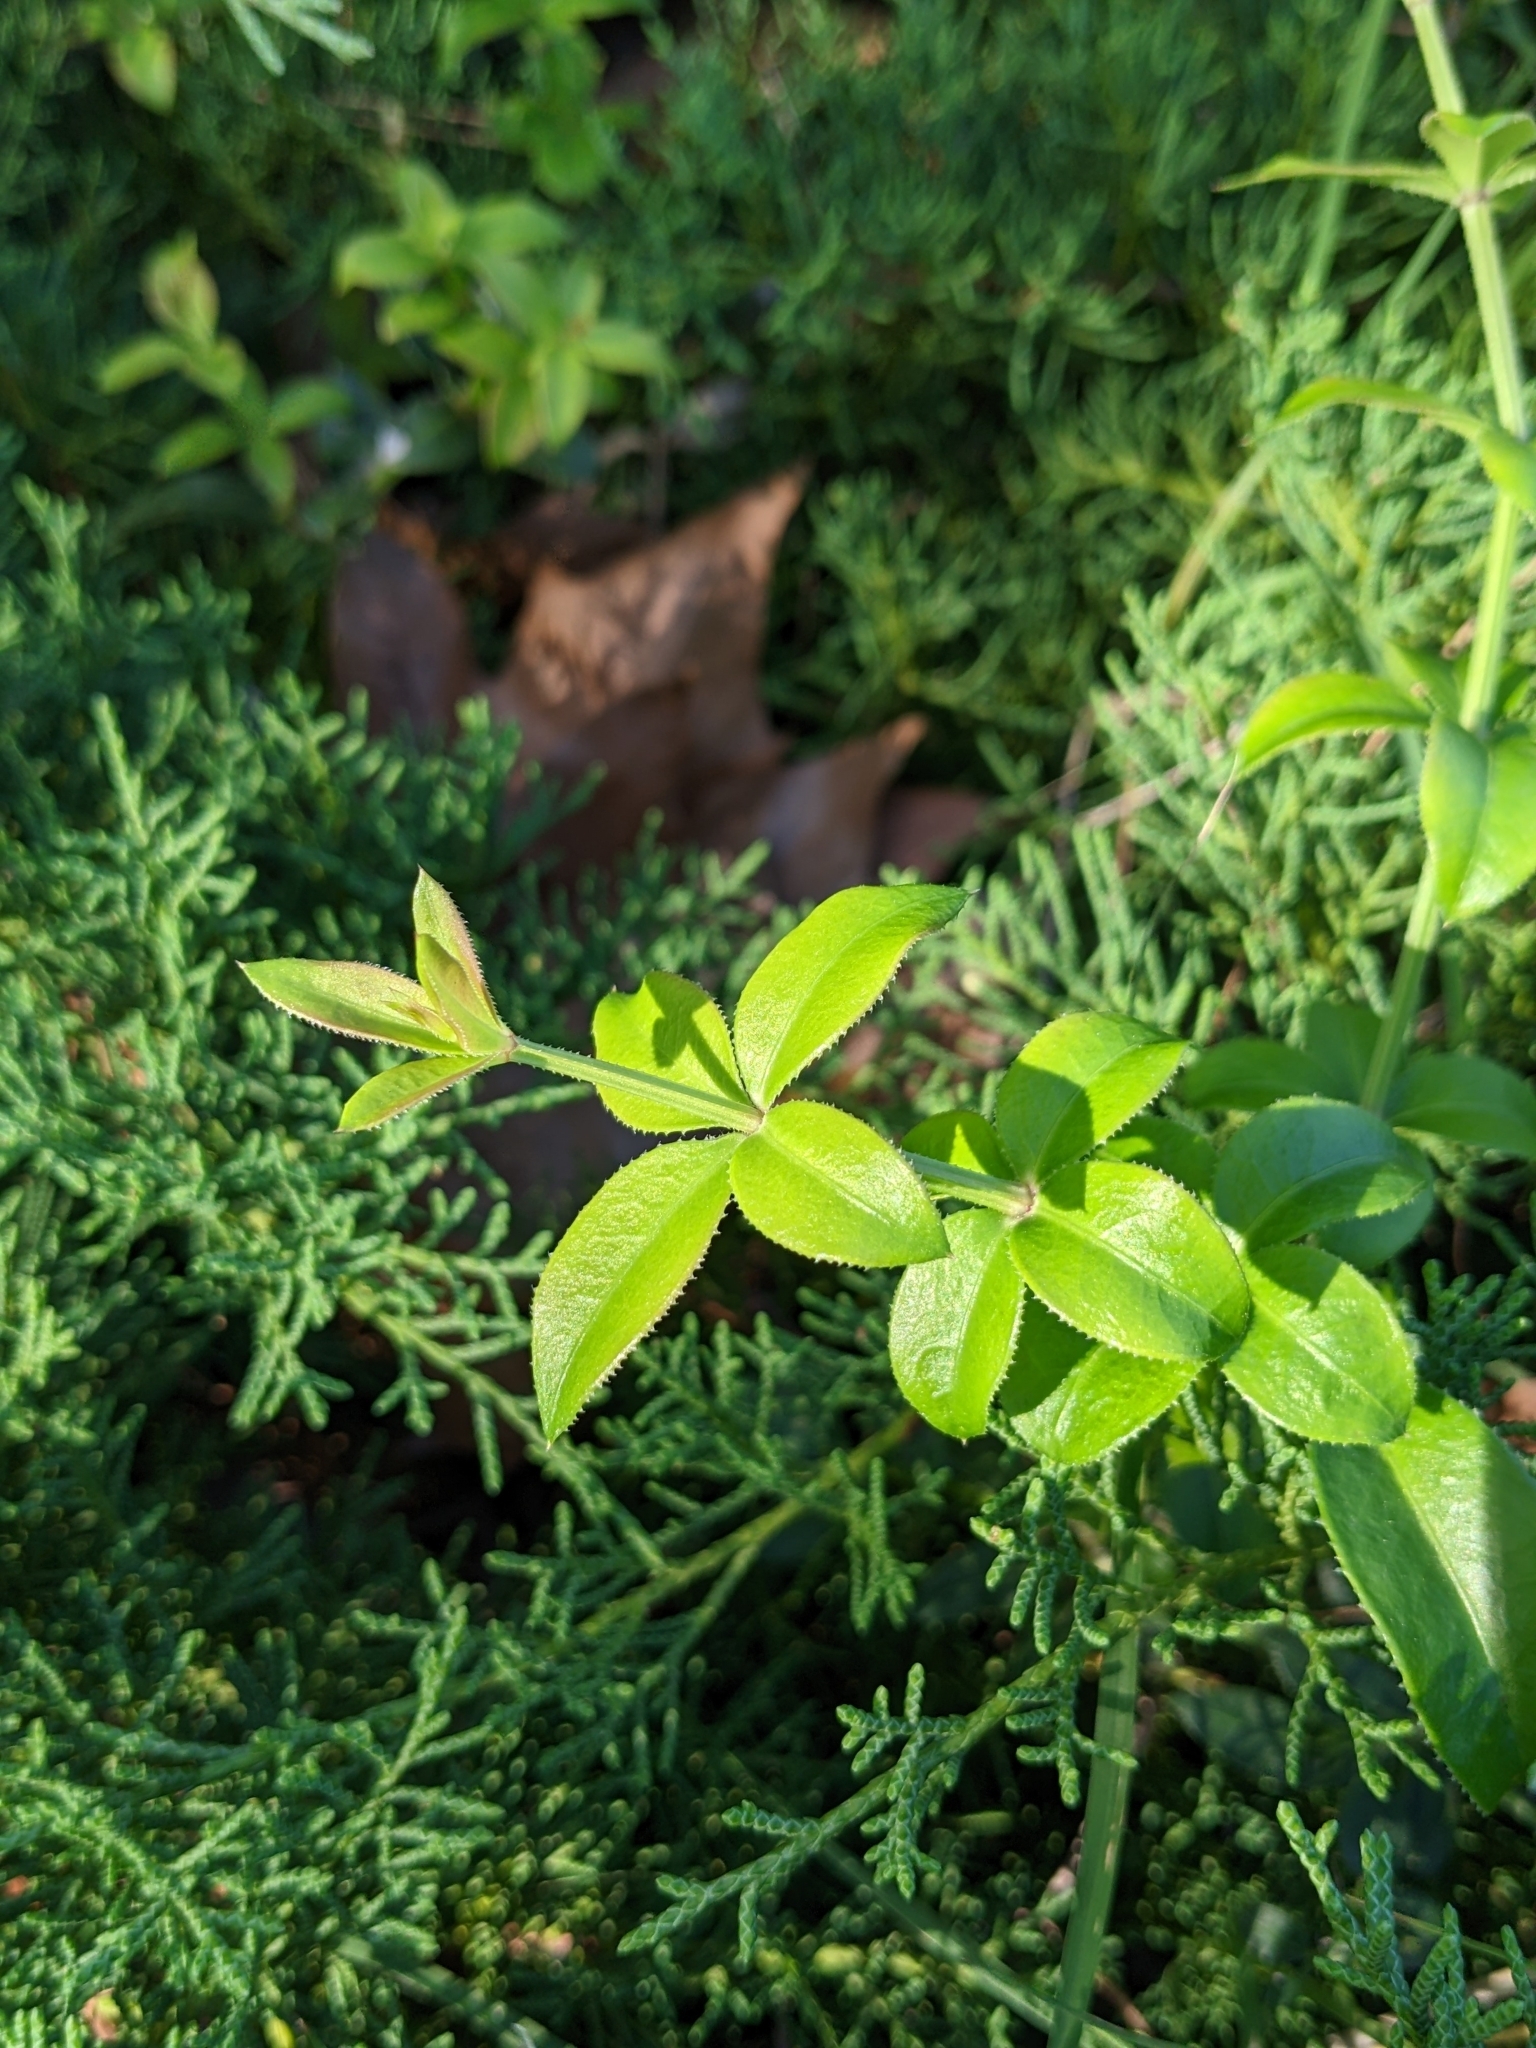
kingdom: Plantae
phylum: Tracheophyta
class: Magnoliopsida
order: Gentianales
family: Rubiaceae
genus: Rubia
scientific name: Rubia peregrina
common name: Wild madder
